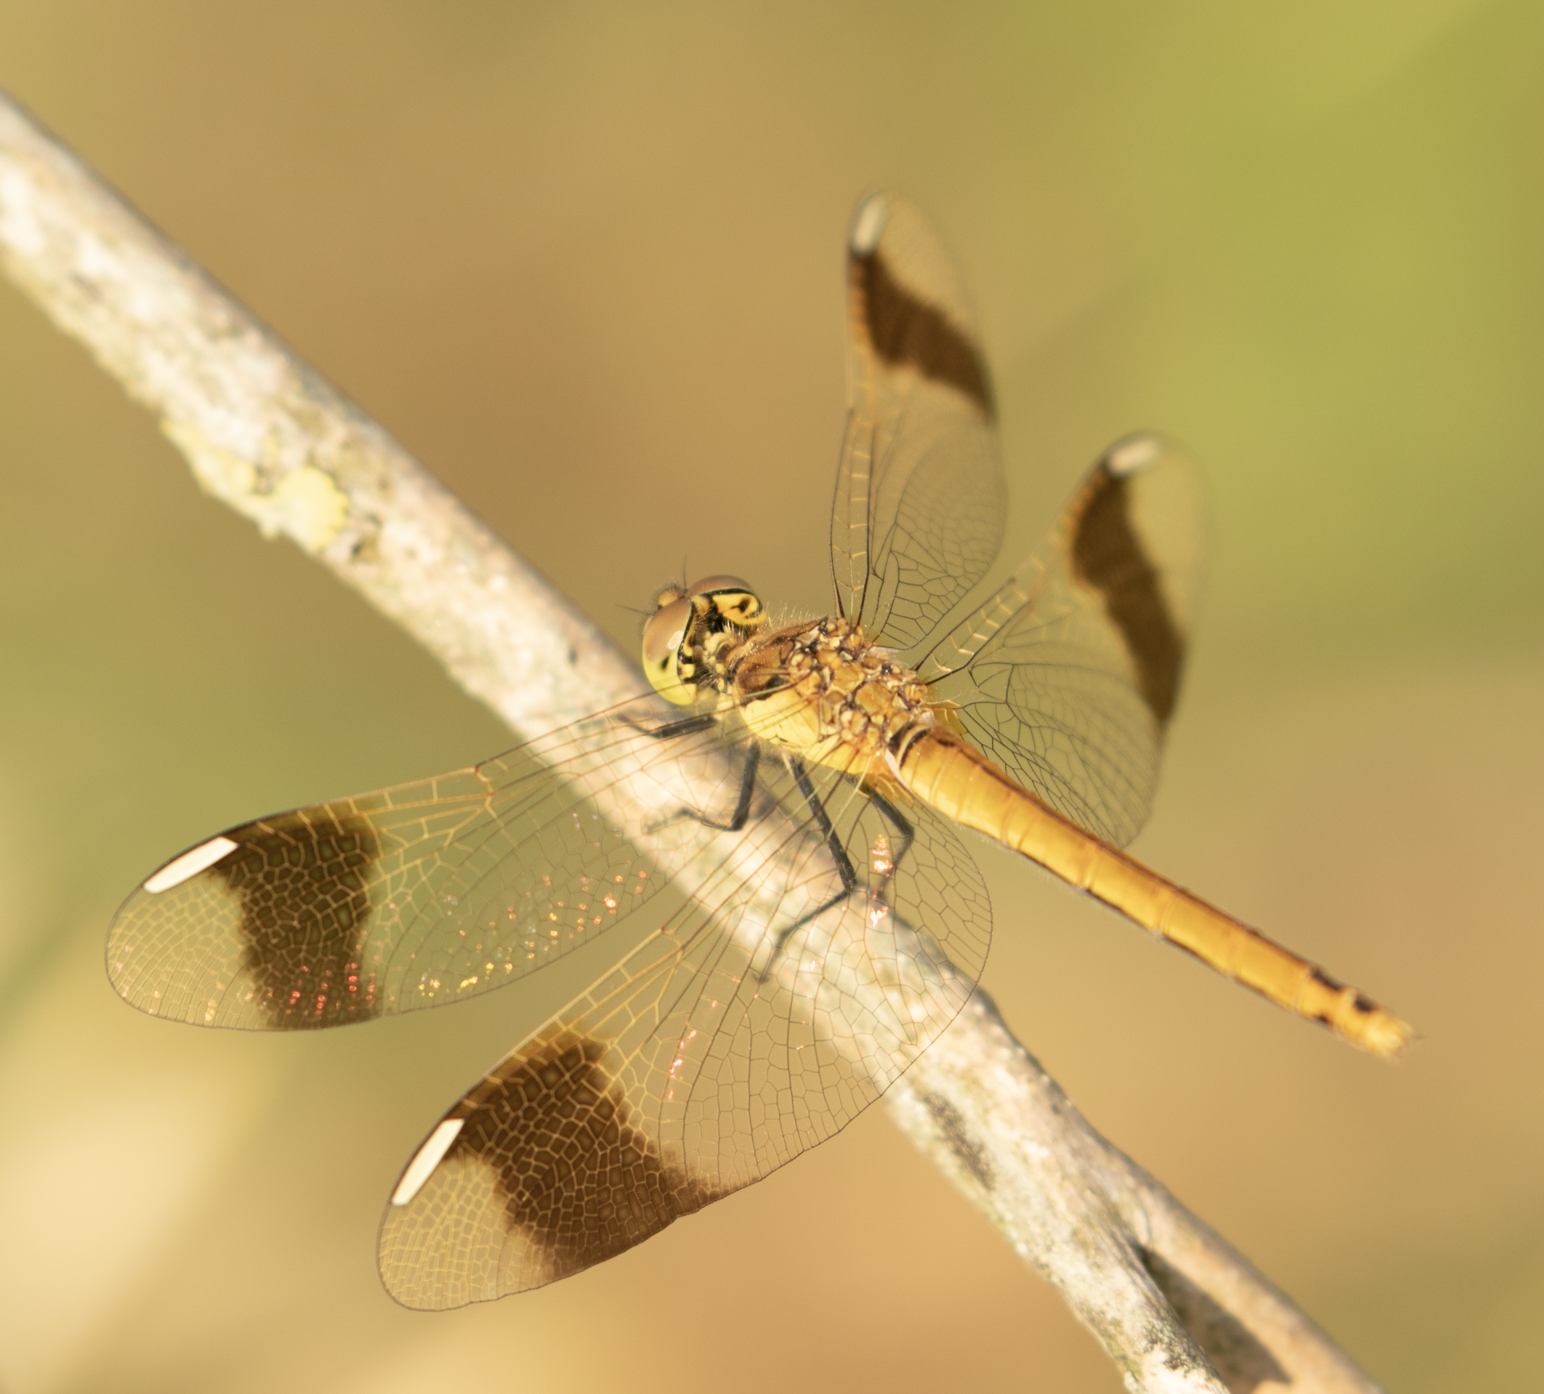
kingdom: Animalia
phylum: Arthropoda
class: Insecta
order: Odonata
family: Libellulidae
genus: Sympetrum
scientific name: Sympetrum pedemontanum
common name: Banded darter
